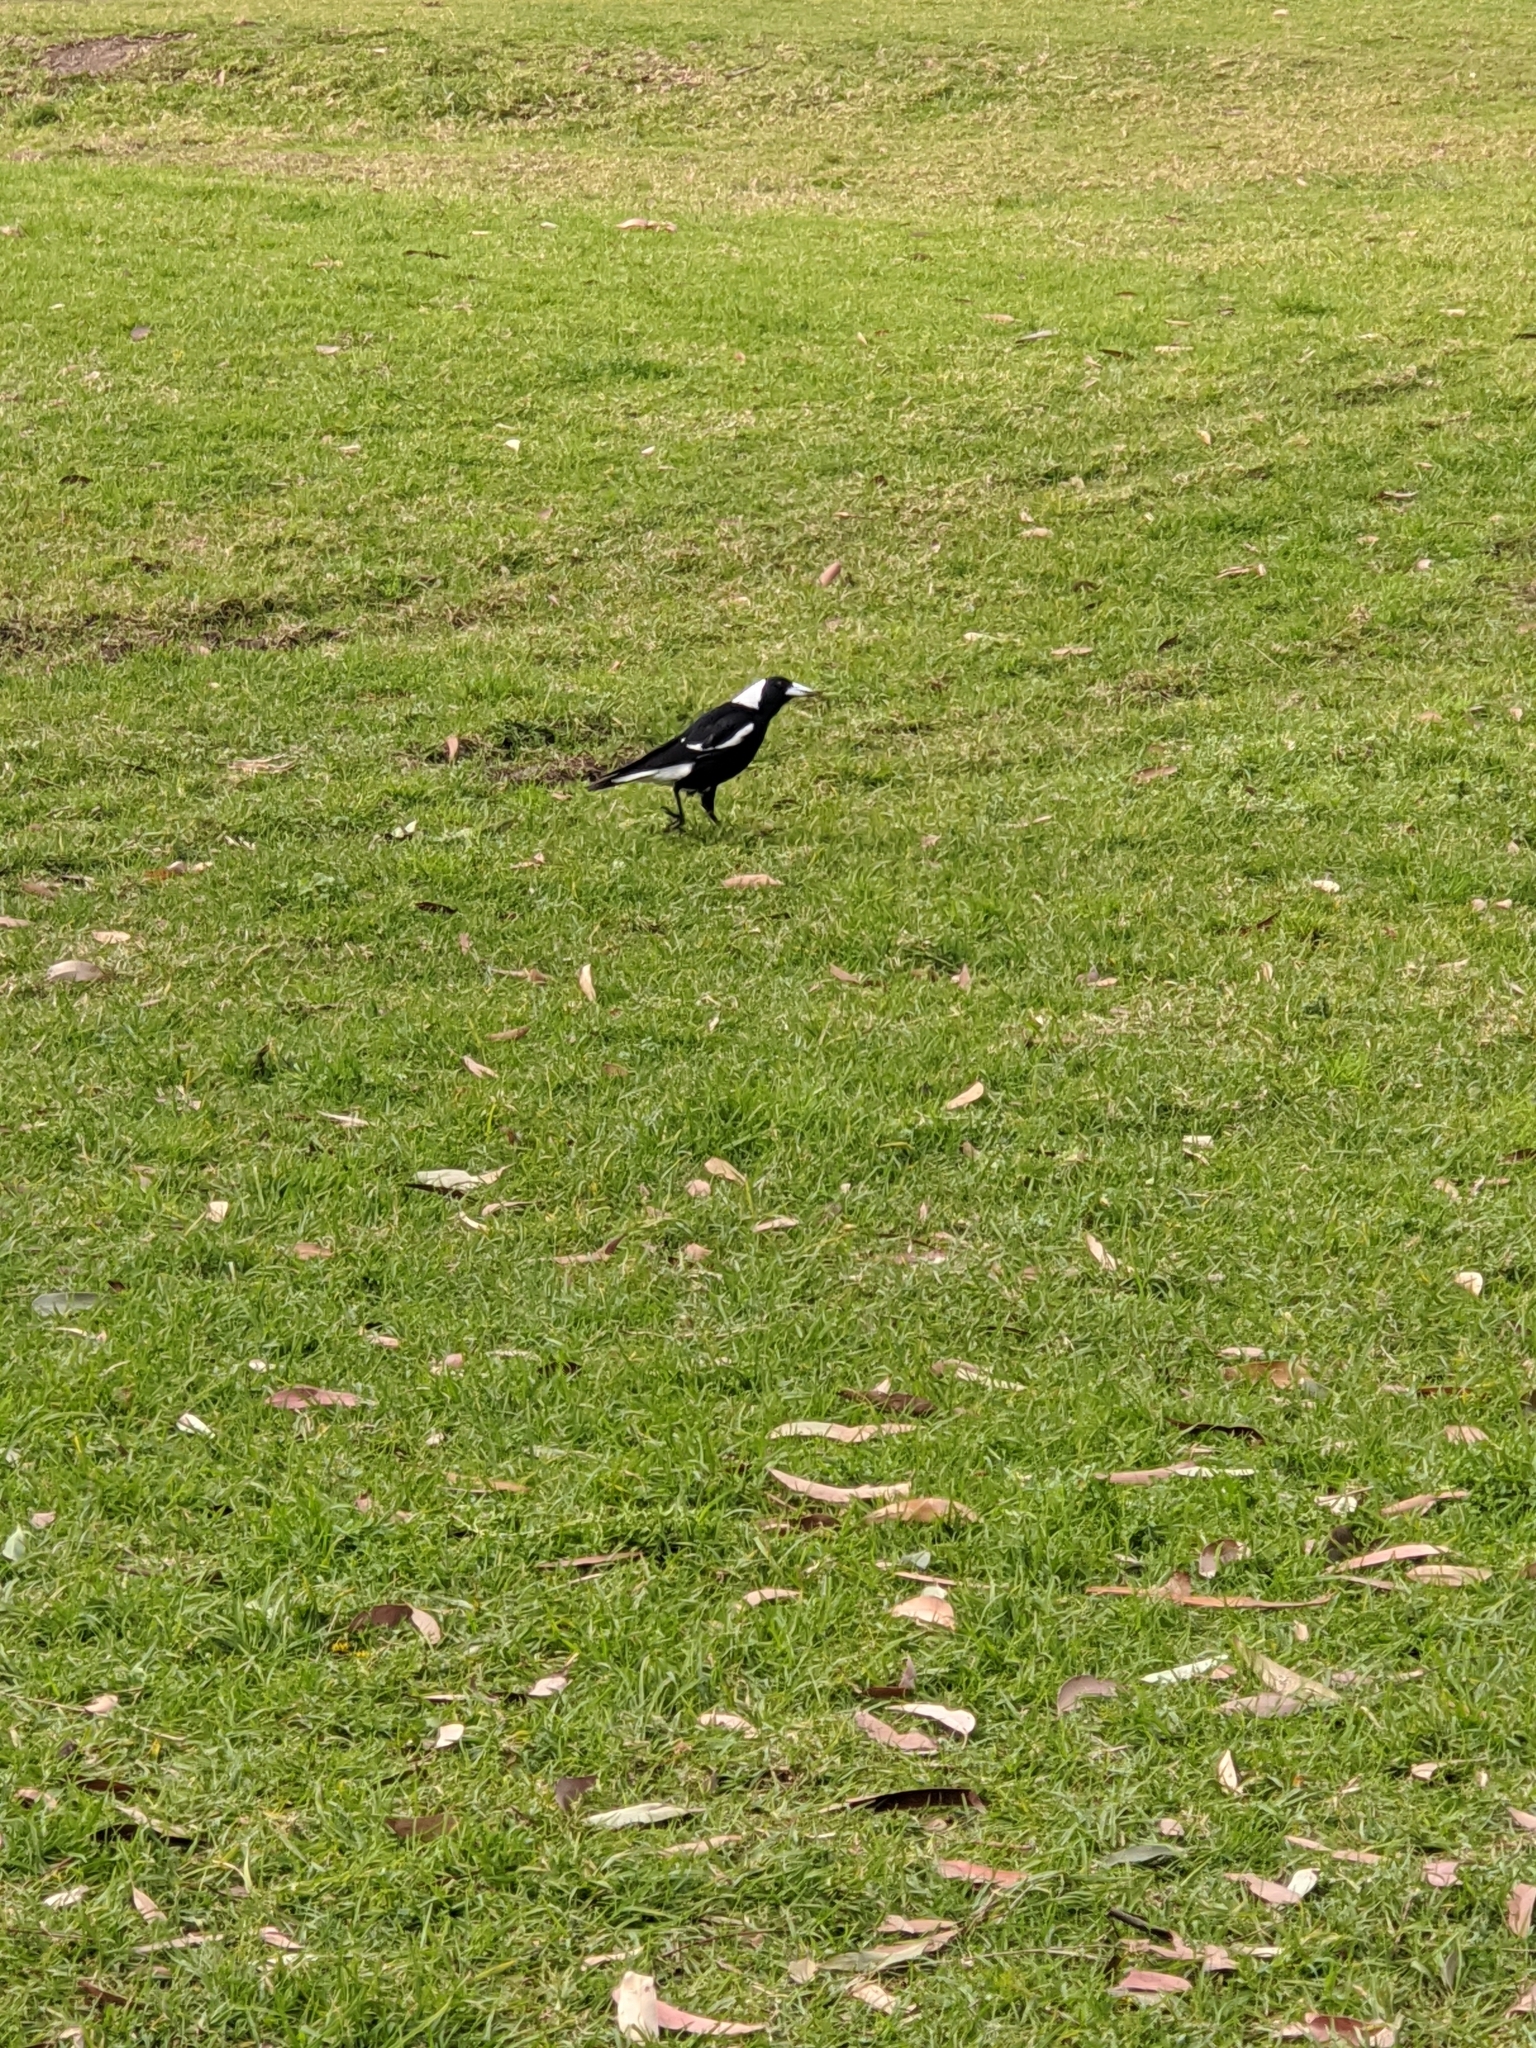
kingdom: Animalia
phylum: Chordata
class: Aves
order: Passeriformes
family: Cracticidae
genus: Gymnorhina
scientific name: Gymnorhina tibicen
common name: Australian magpie
